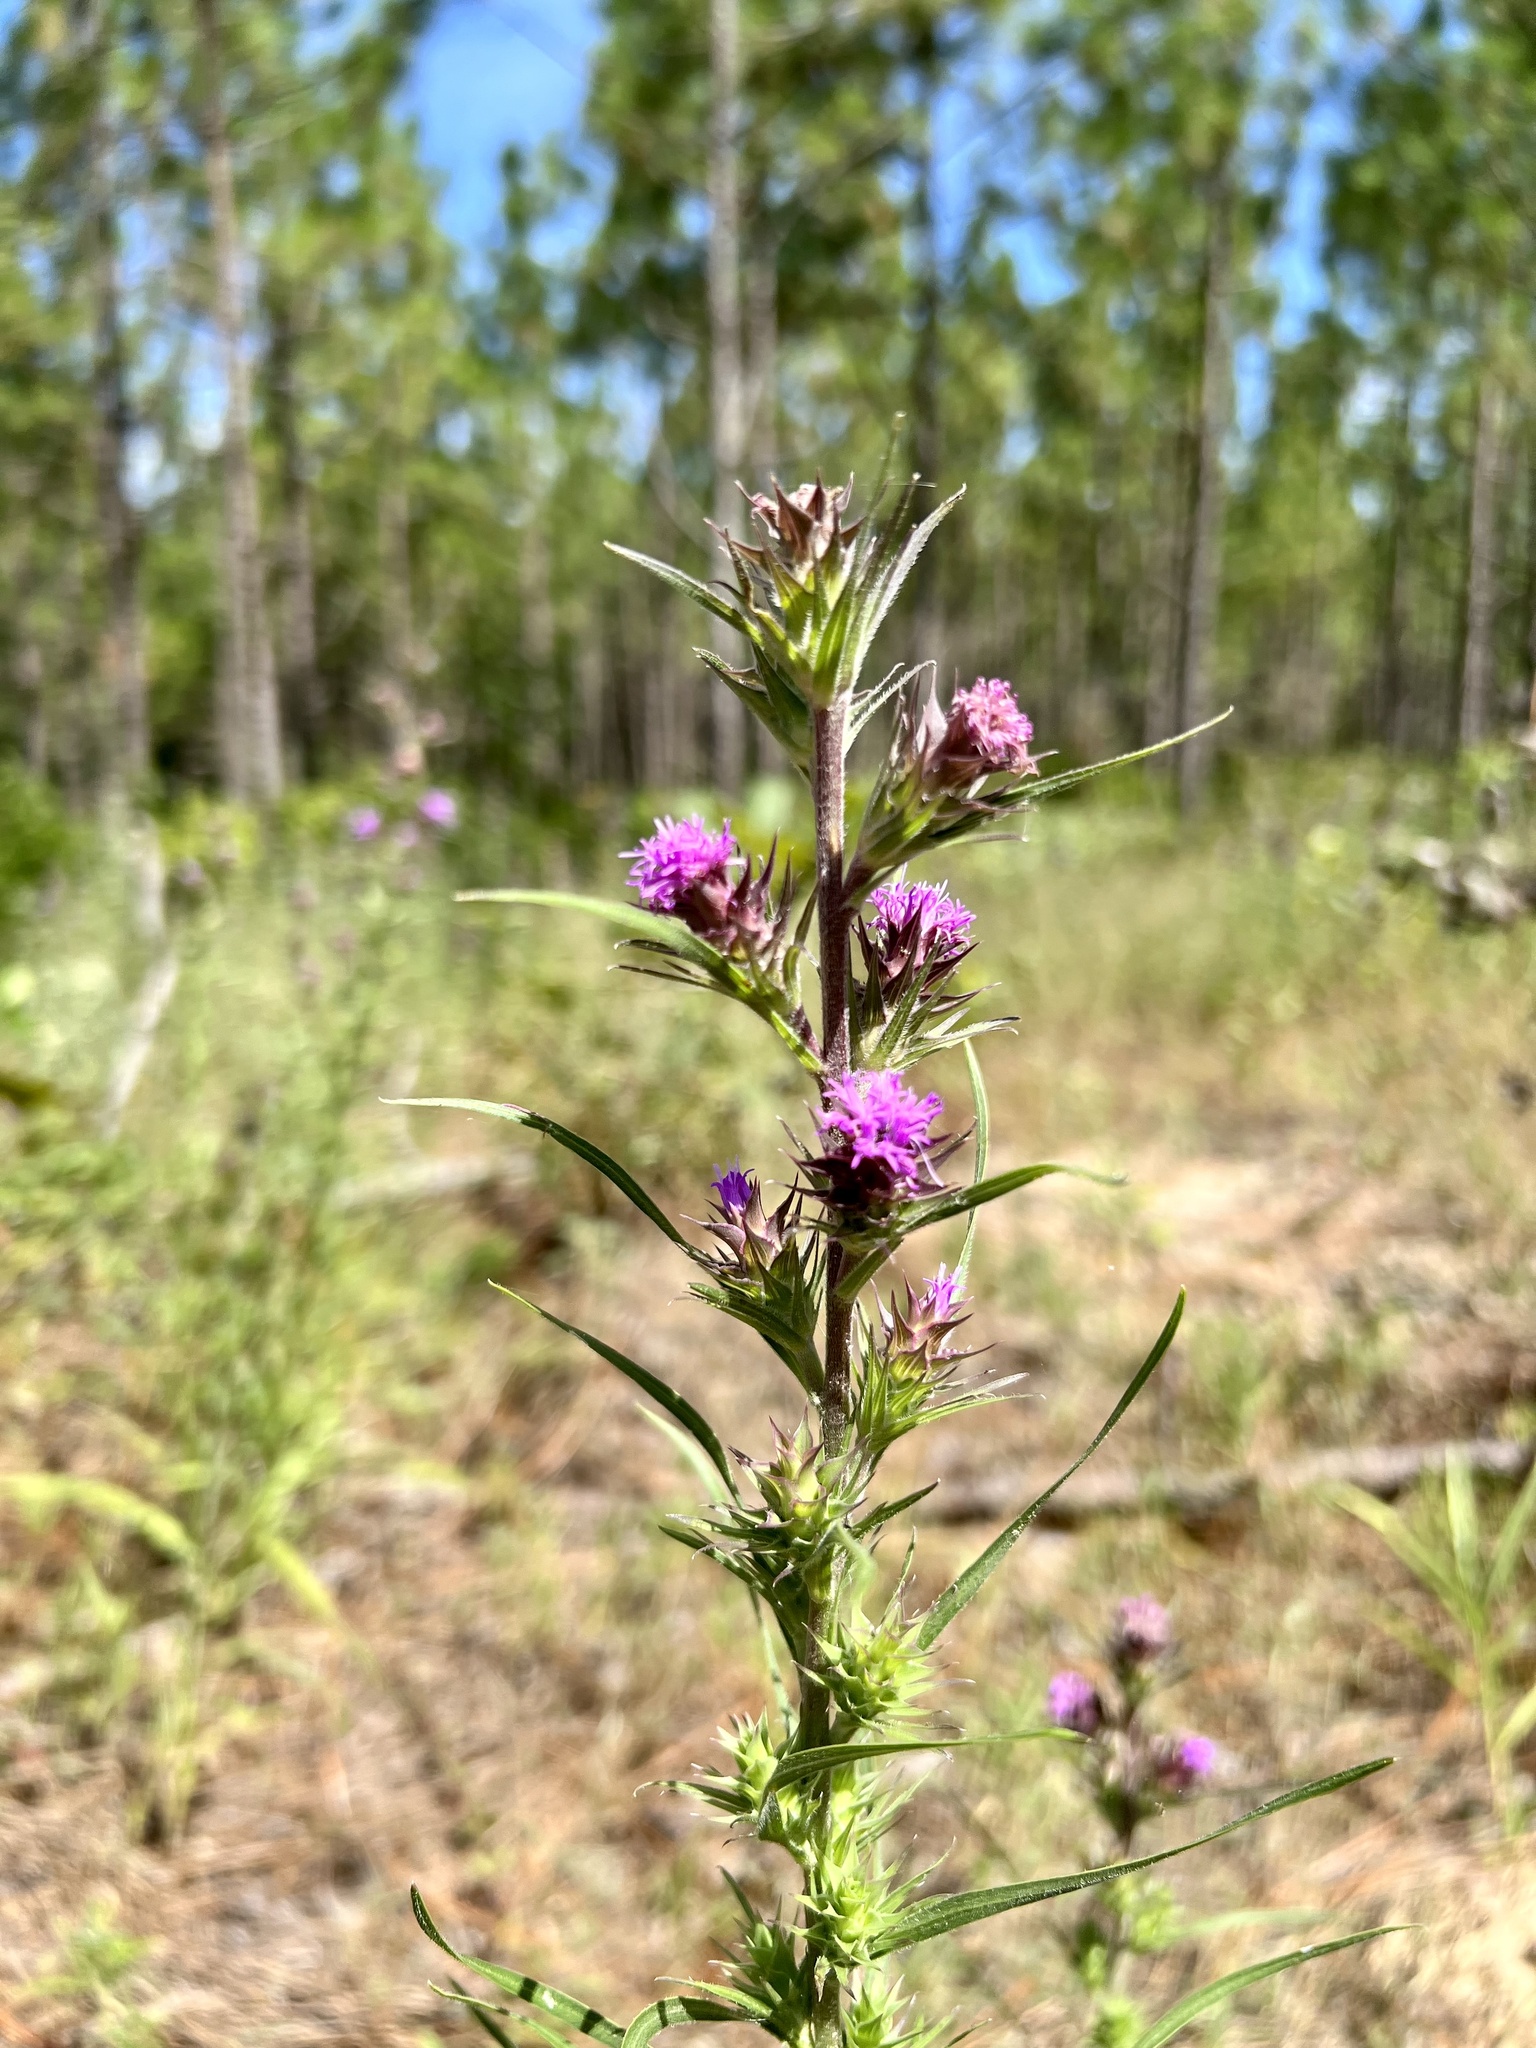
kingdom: Plantae
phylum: Tracheophyta
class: Magnoliopsida
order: Asterales
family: Asteraceae
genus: Liatris
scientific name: Liatris squarrosa
